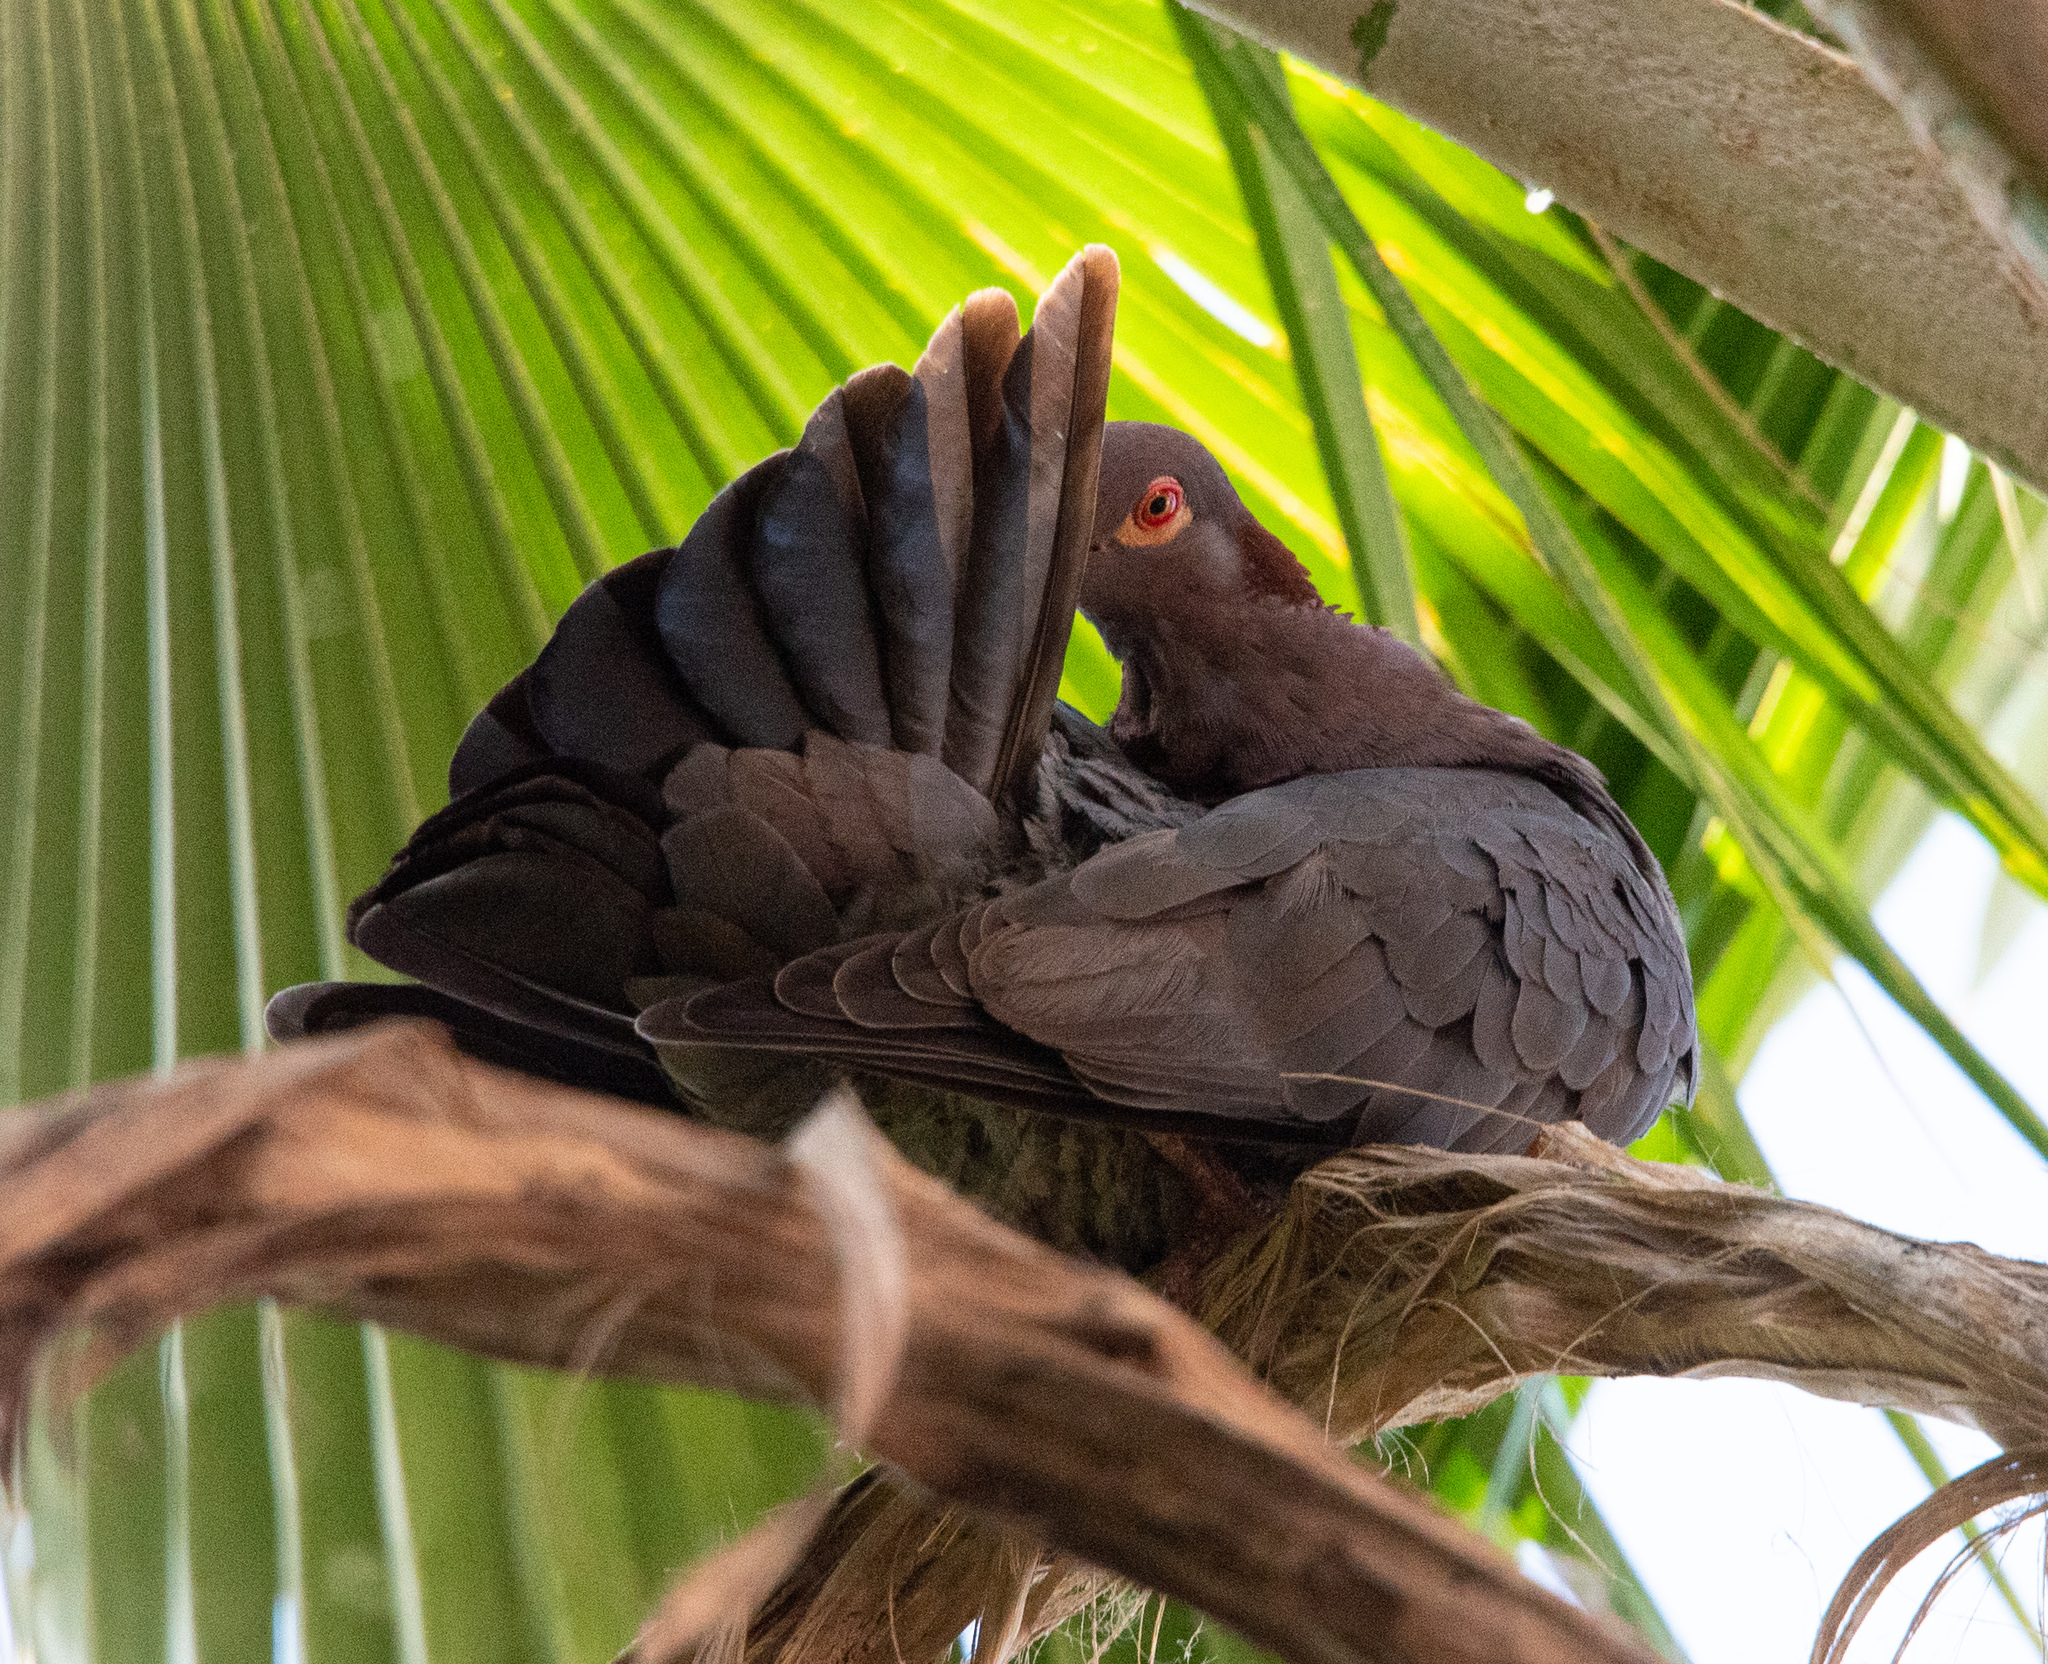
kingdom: Animalia
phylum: Chordata
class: Aves
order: Columbiformes
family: Columbidae
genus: Patagioenas
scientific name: Patagioenas squamosa
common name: Scaly-naped pigeon
